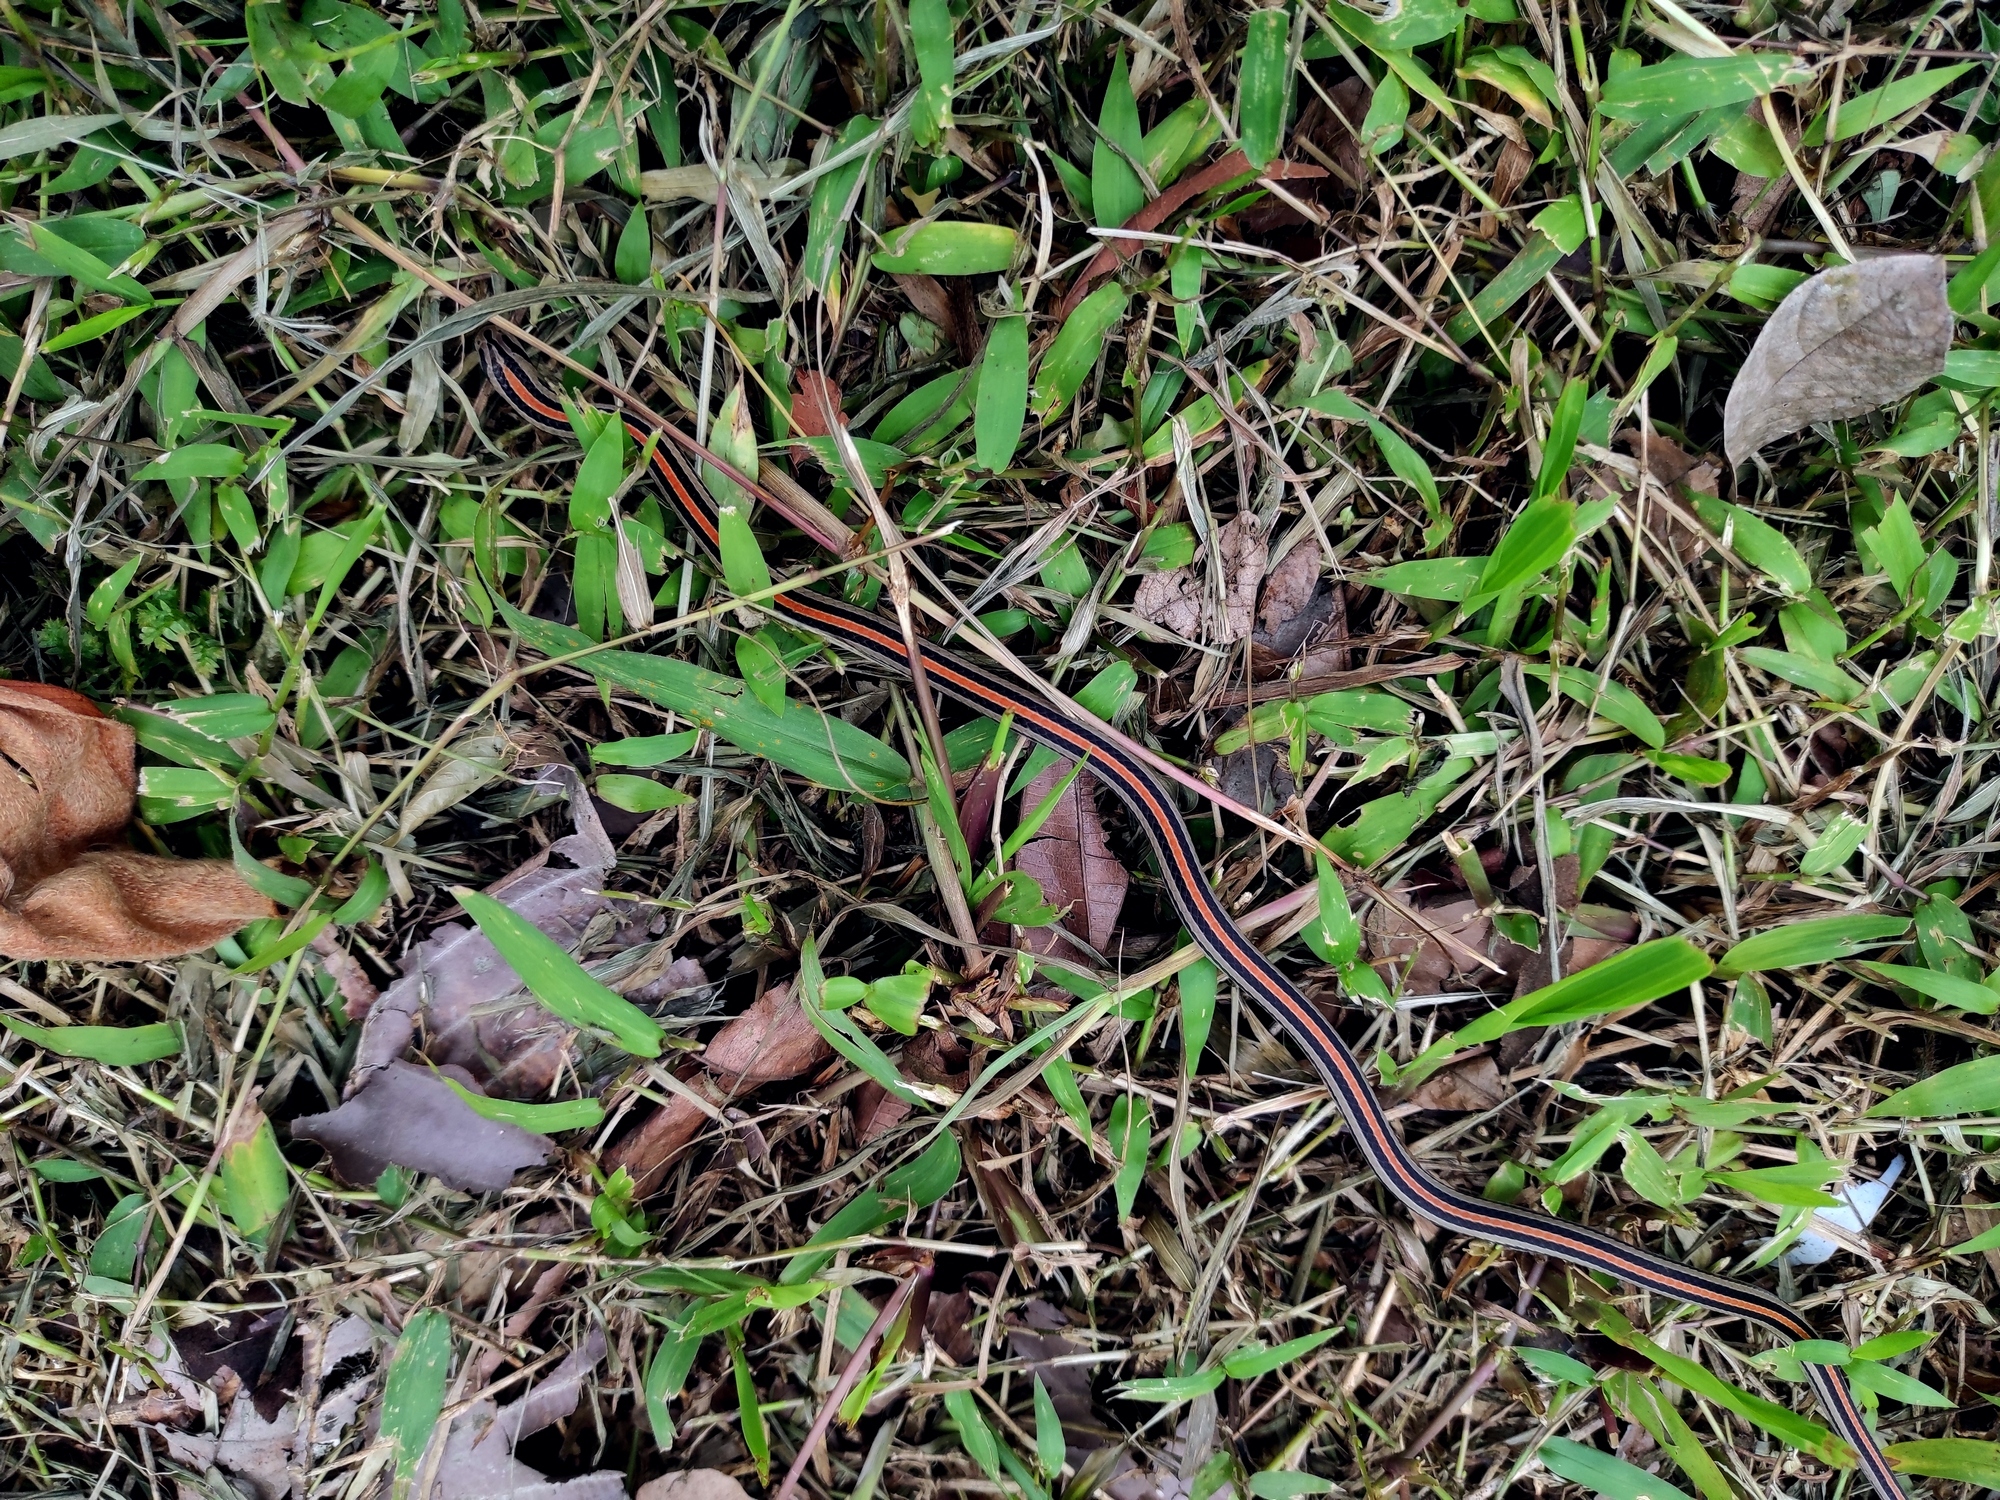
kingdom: Animalia
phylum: Chordata
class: Squamata
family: Colubridae
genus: Oligodon
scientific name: Oligodon octolineatus
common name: Eight-striped kukri snake
